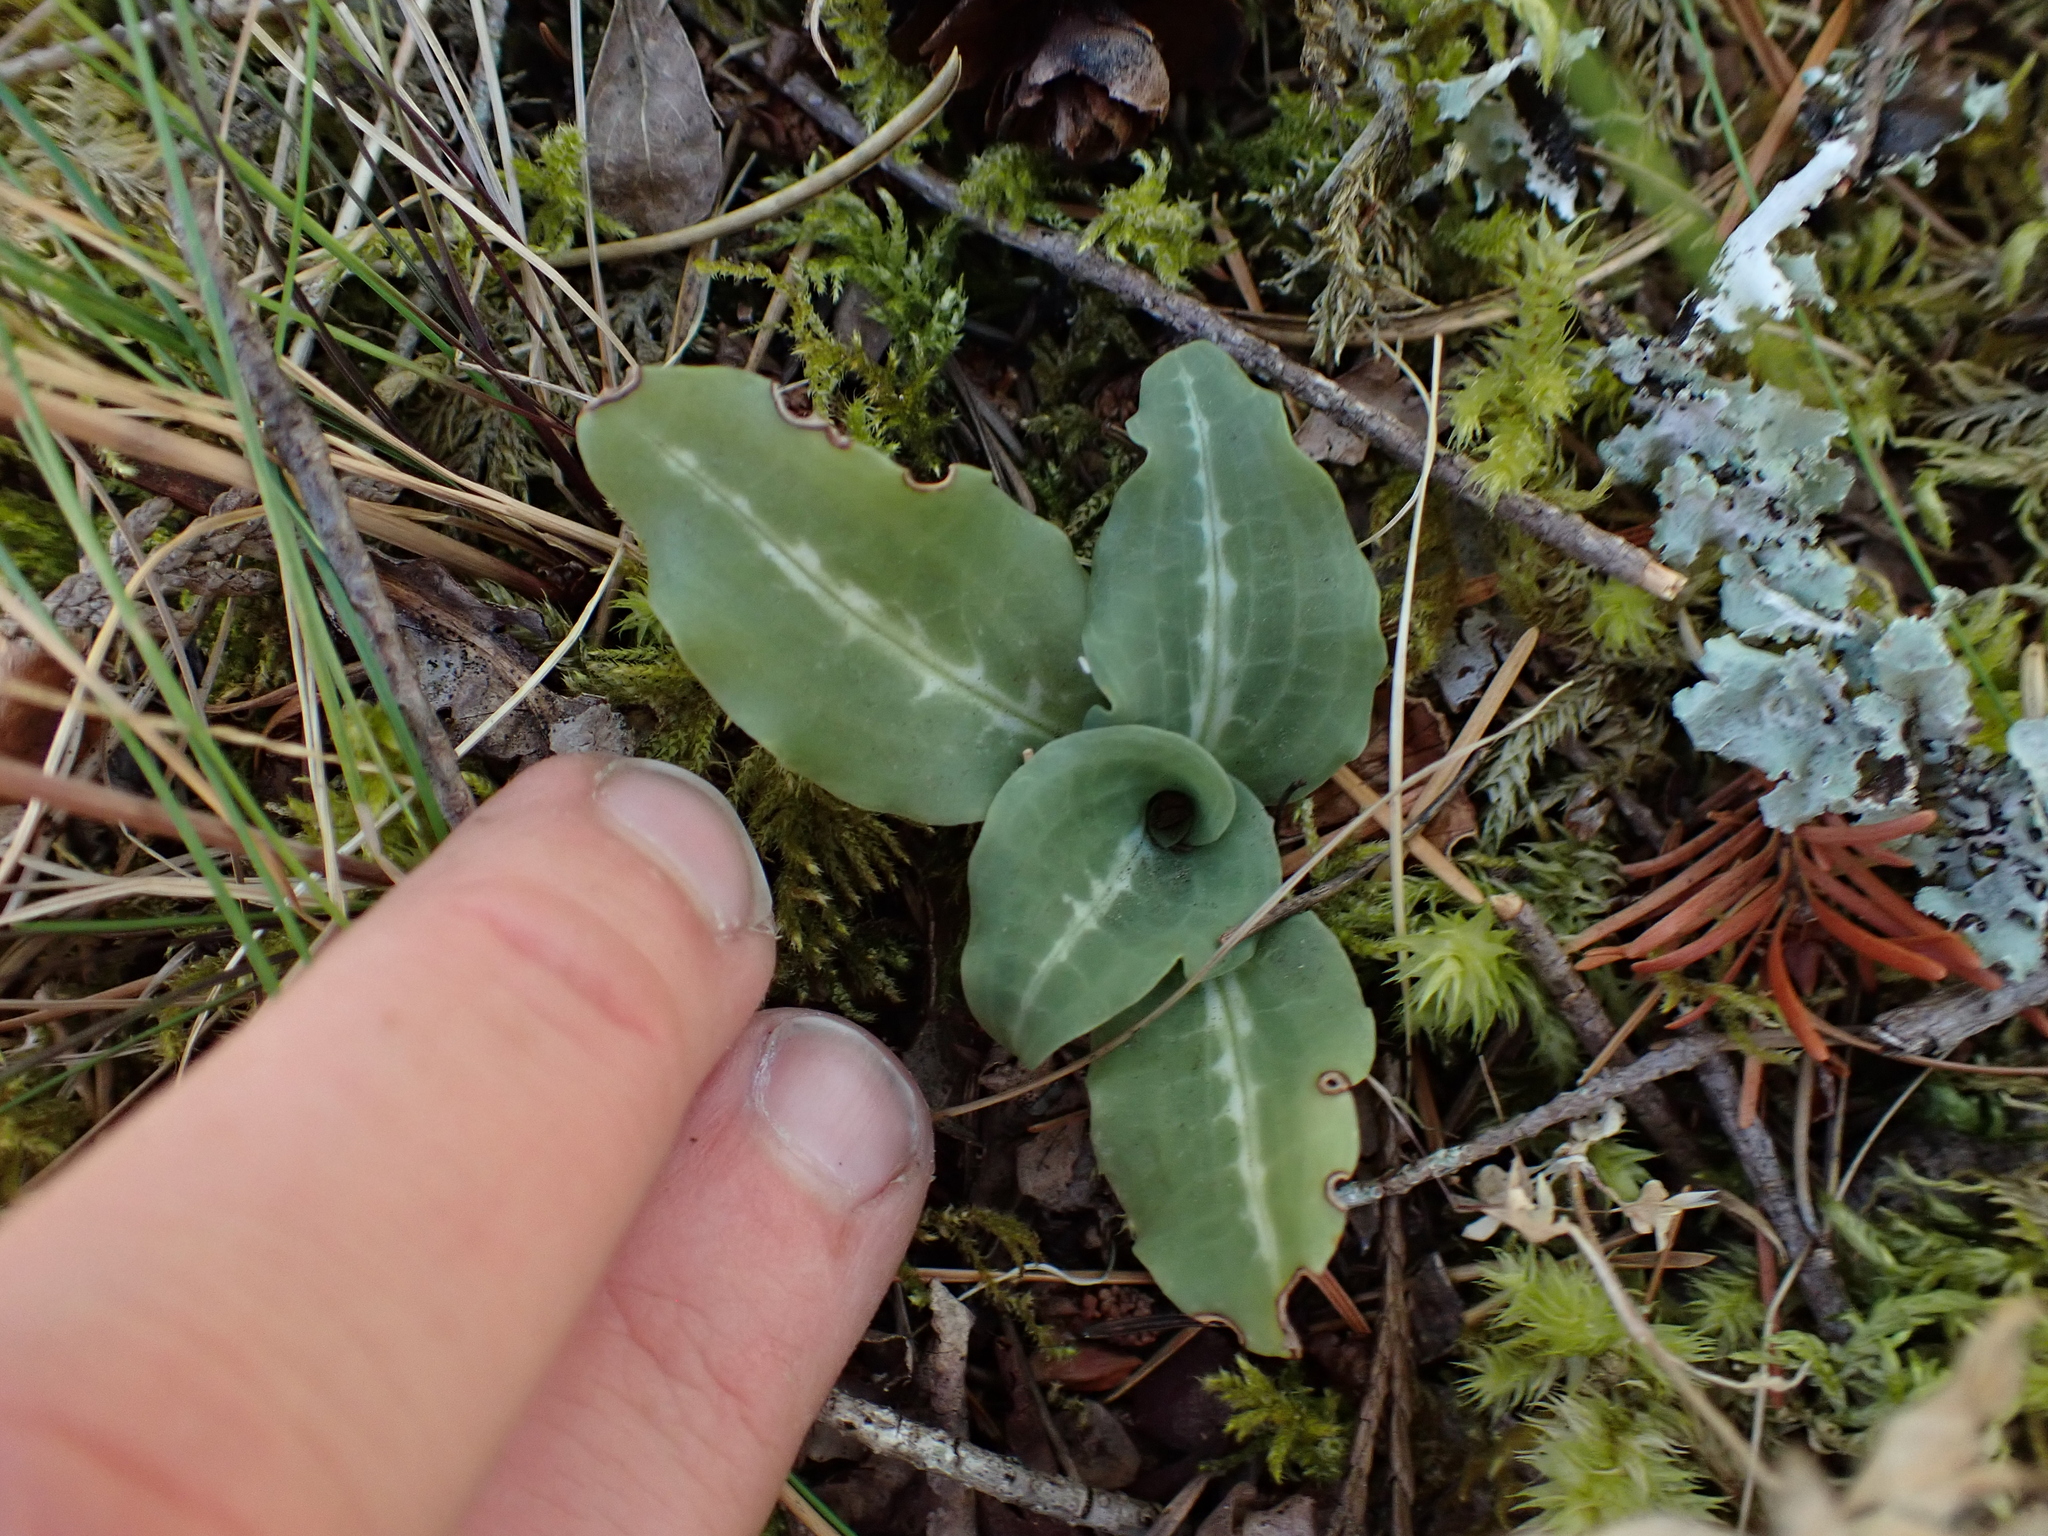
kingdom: Plantae
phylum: Tracheophyta
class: Liliopsida
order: Asparagales
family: Orchidaceae
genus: Goodyera
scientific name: Goodyera oblongifolia
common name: Giant rattlesnake-plantain
